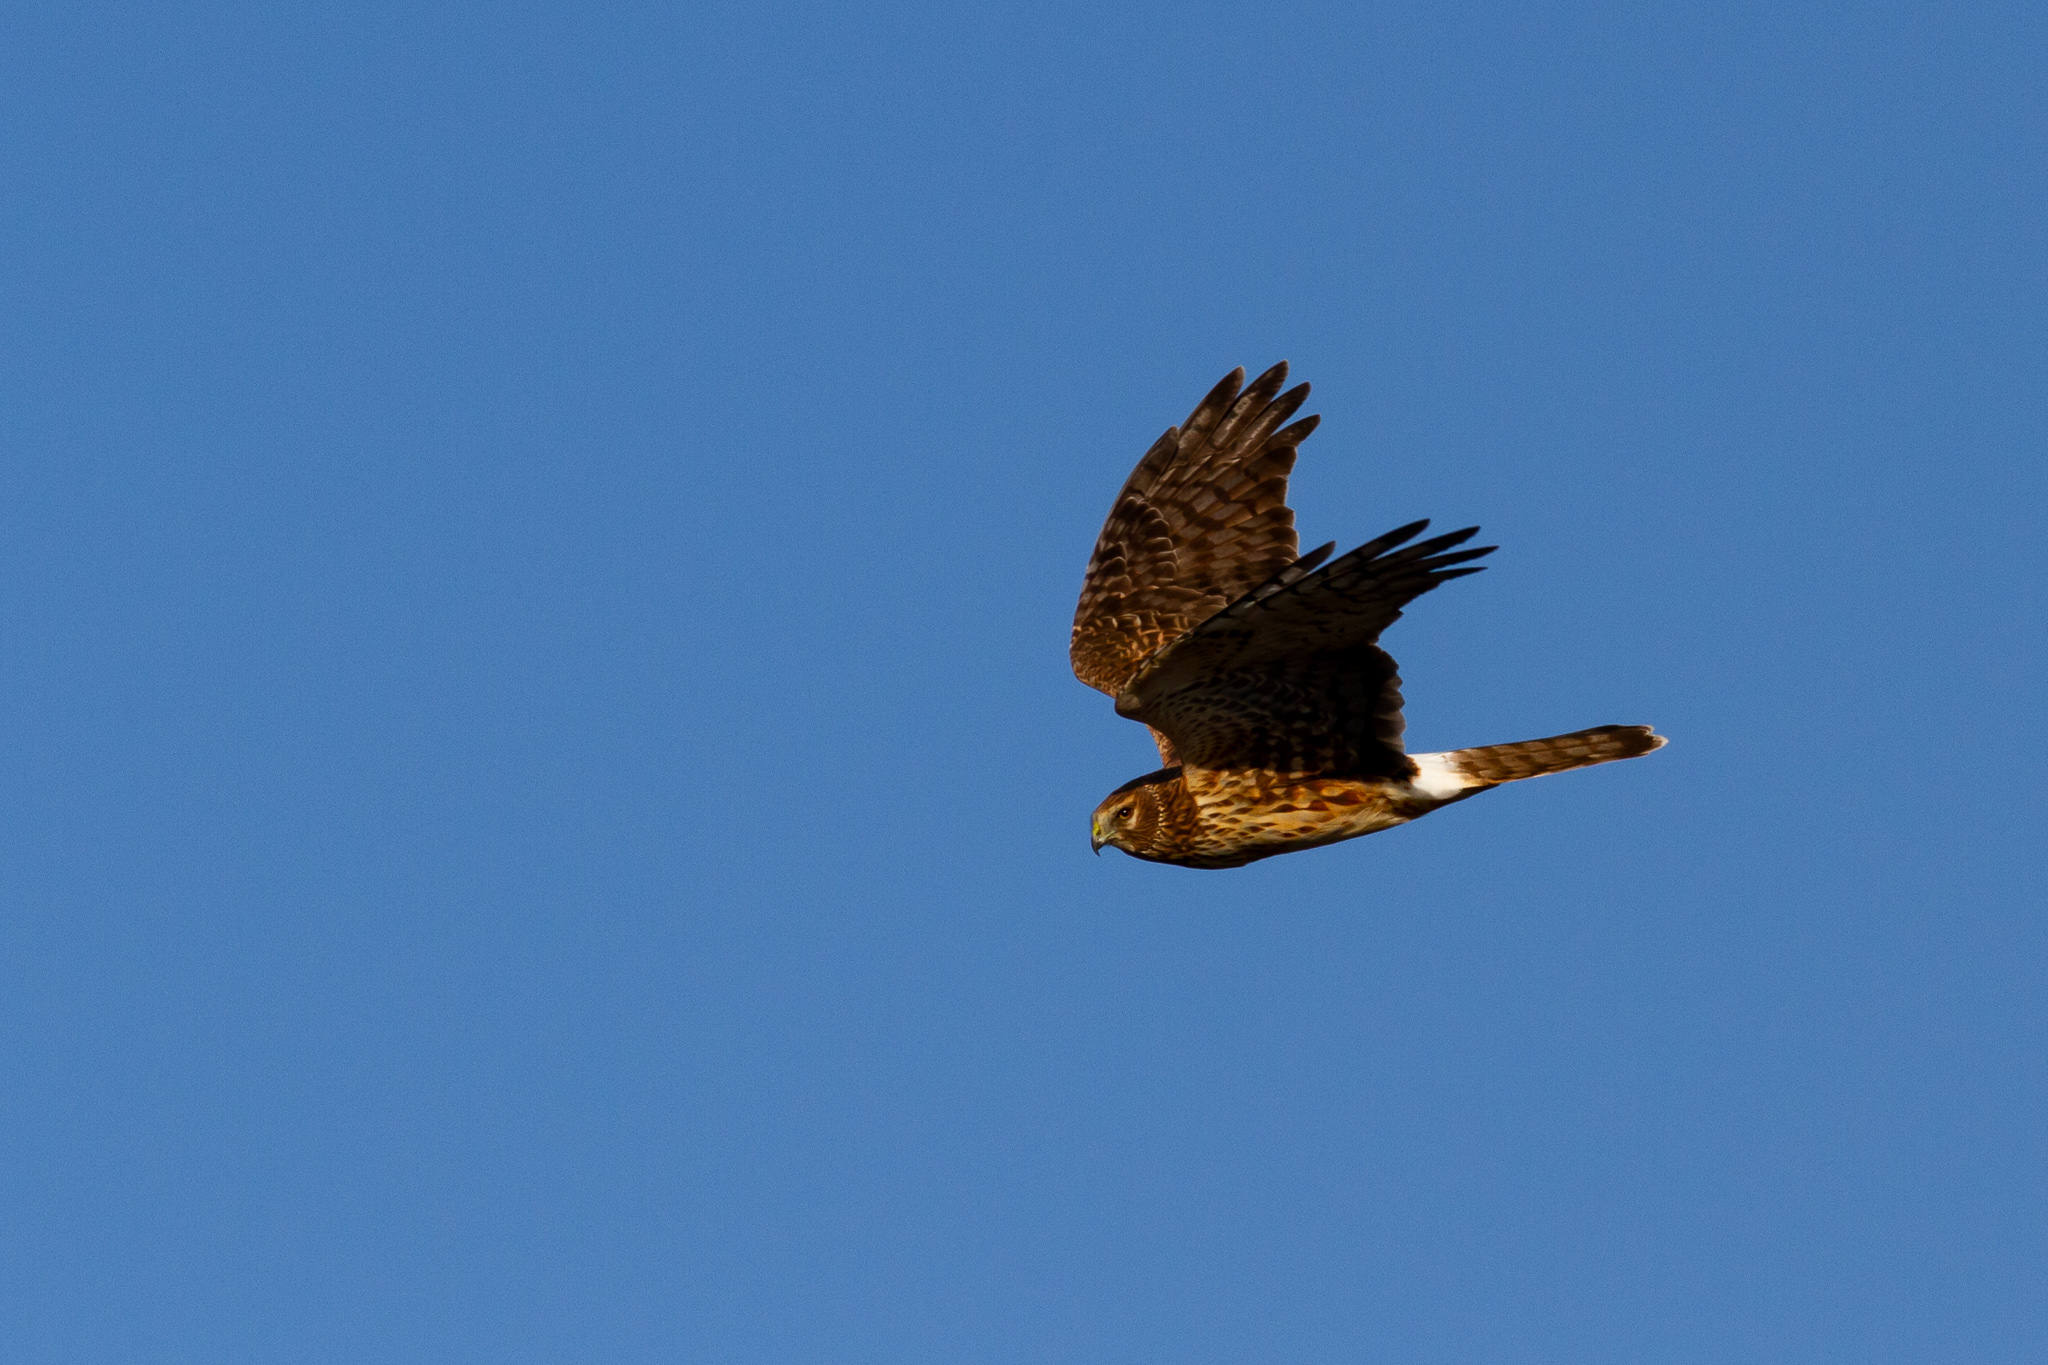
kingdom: Animalia
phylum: Chordata
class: Aves
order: Accipitriformes
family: Accipitridae
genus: Circus
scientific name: Circus cyaneus
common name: Hen harrier
